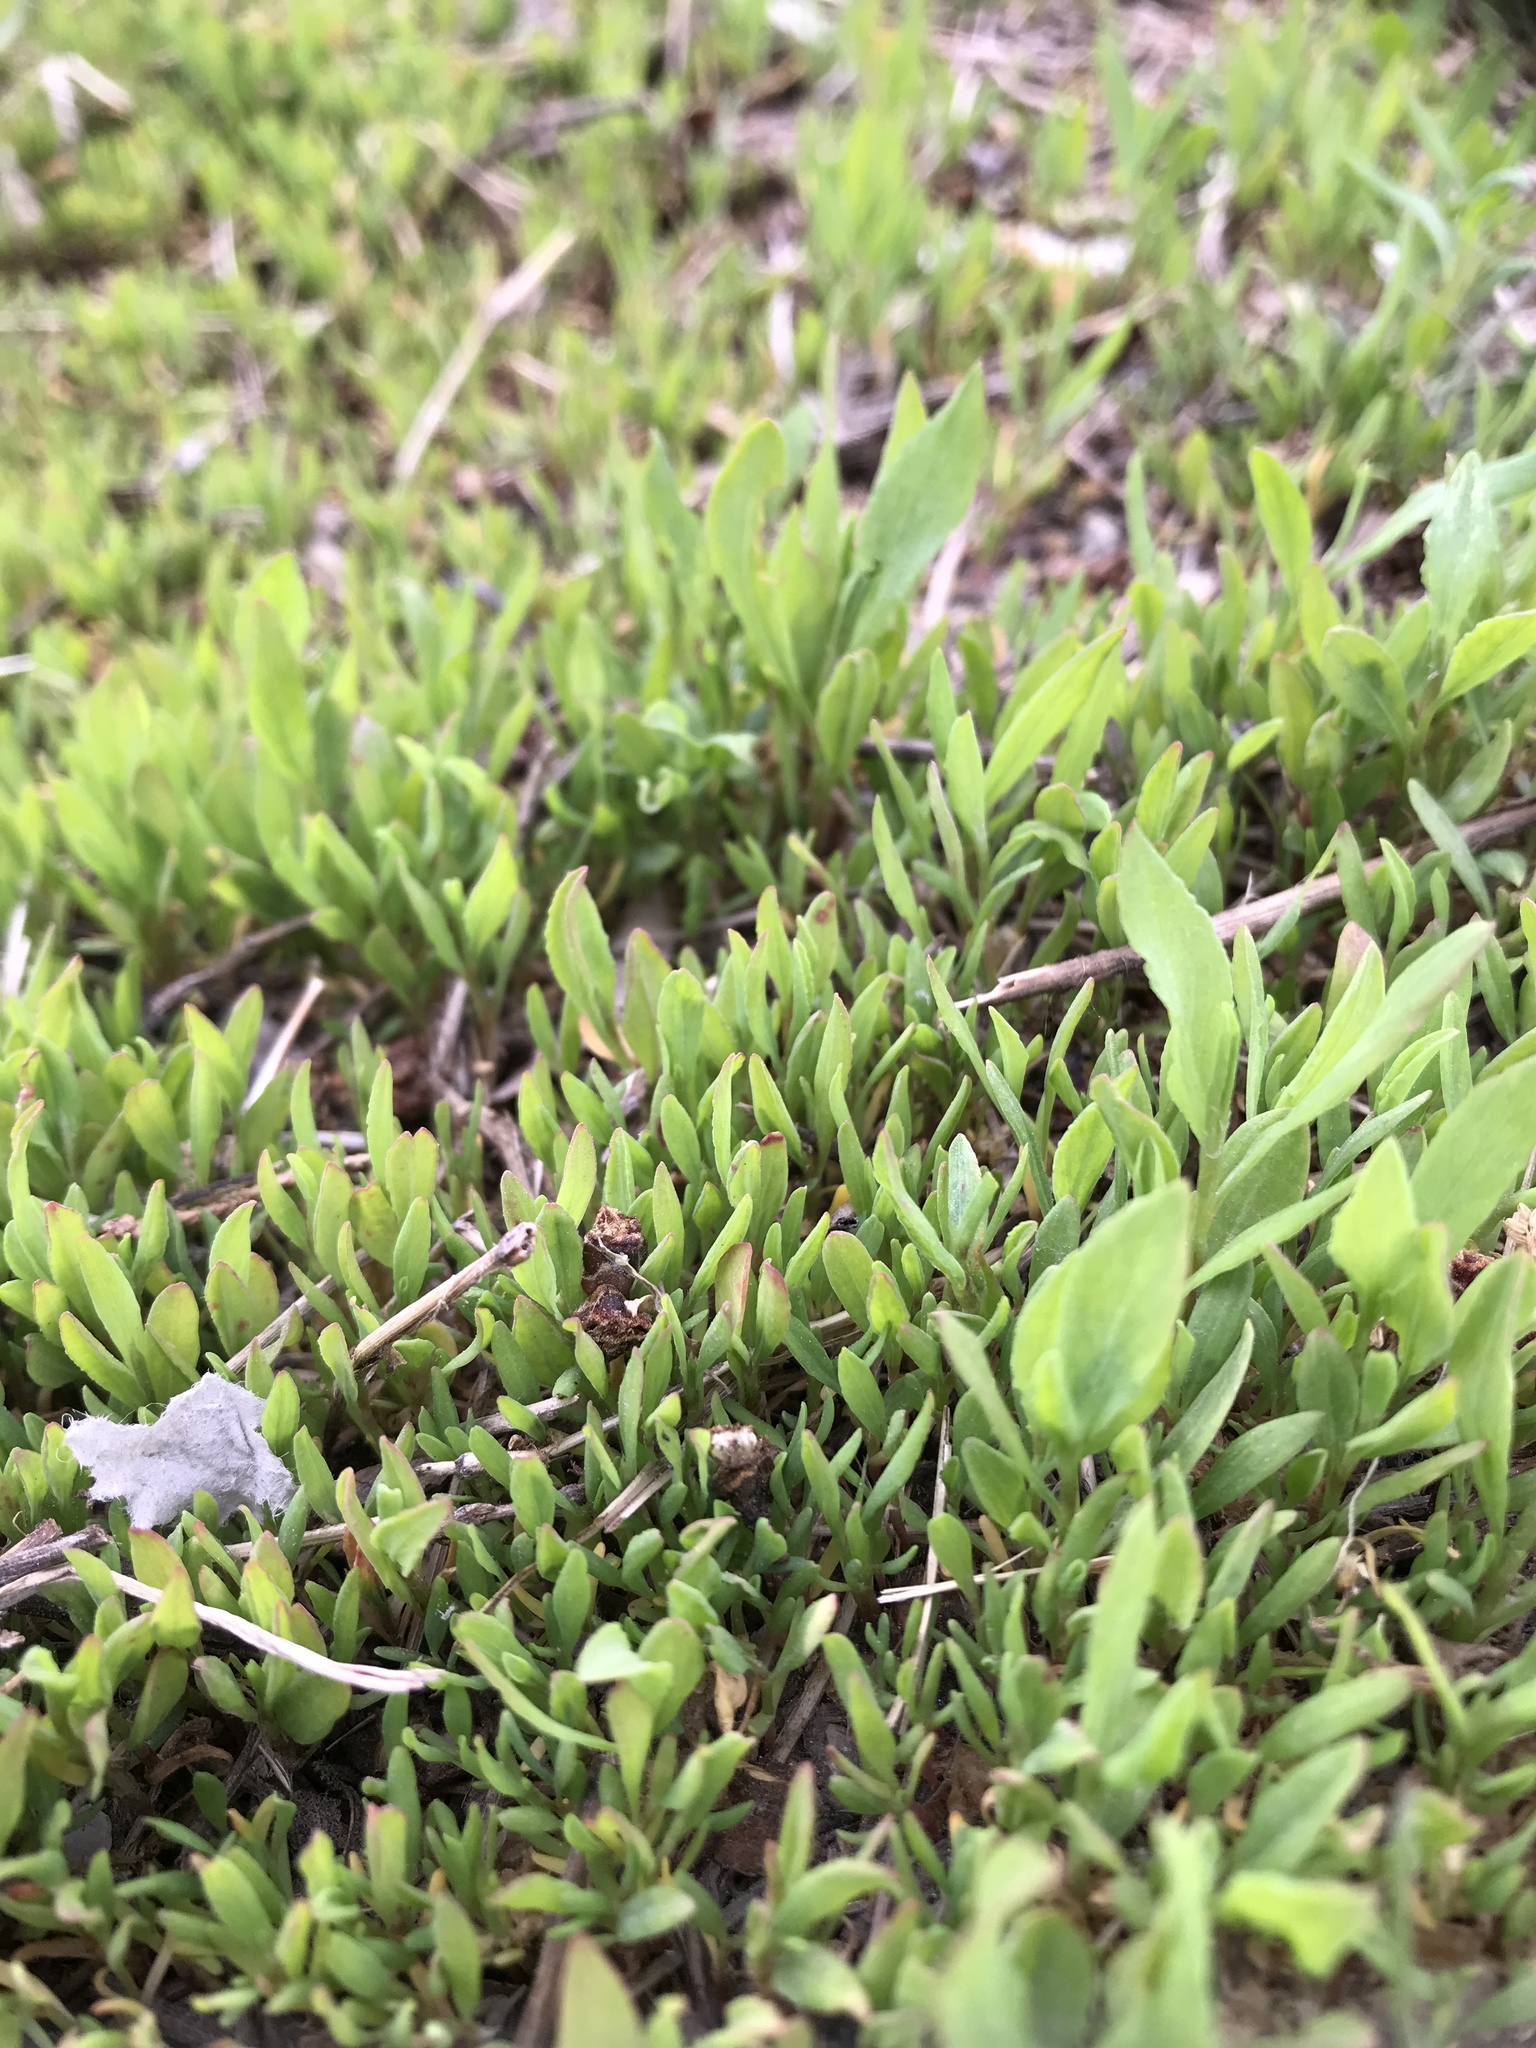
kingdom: Plantae
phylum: Tracheophyta
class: Magnoliopsida
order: Caryophyllales
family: Polygonaceae
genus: Polygonum
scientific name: Polygonum
